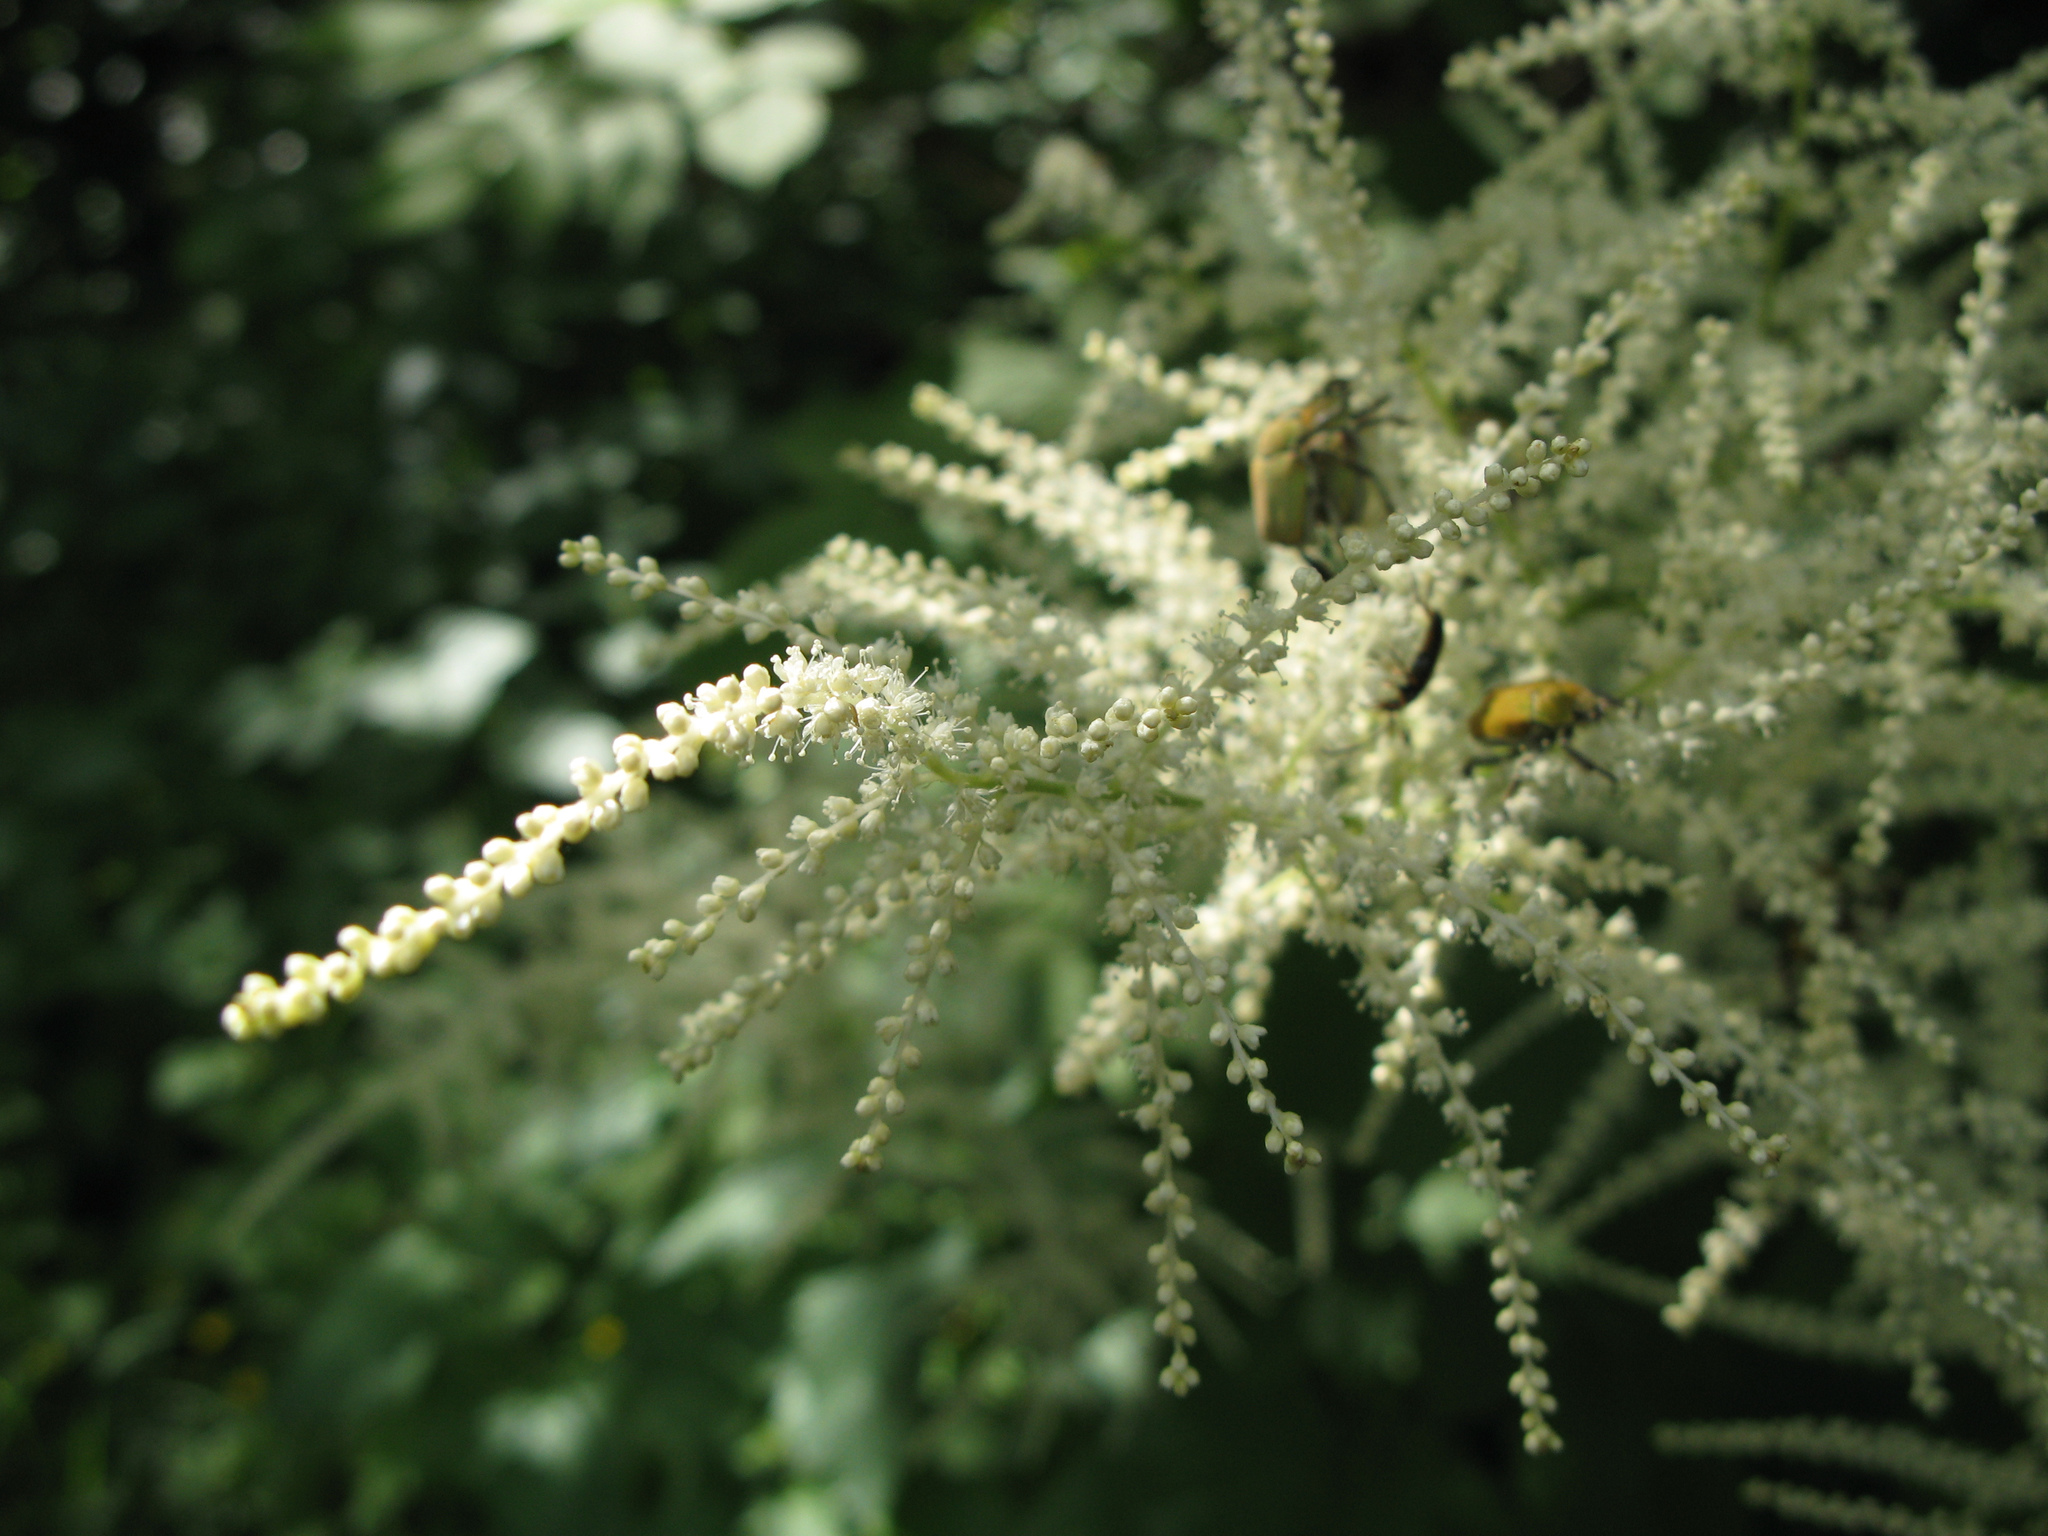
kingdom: Plantae
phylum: Tracheophyta
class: Magnoliopsida
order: Rosales
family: Rosaceae
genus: Aruncus
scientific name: Aruncus dioicus
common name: Buck's-beard
